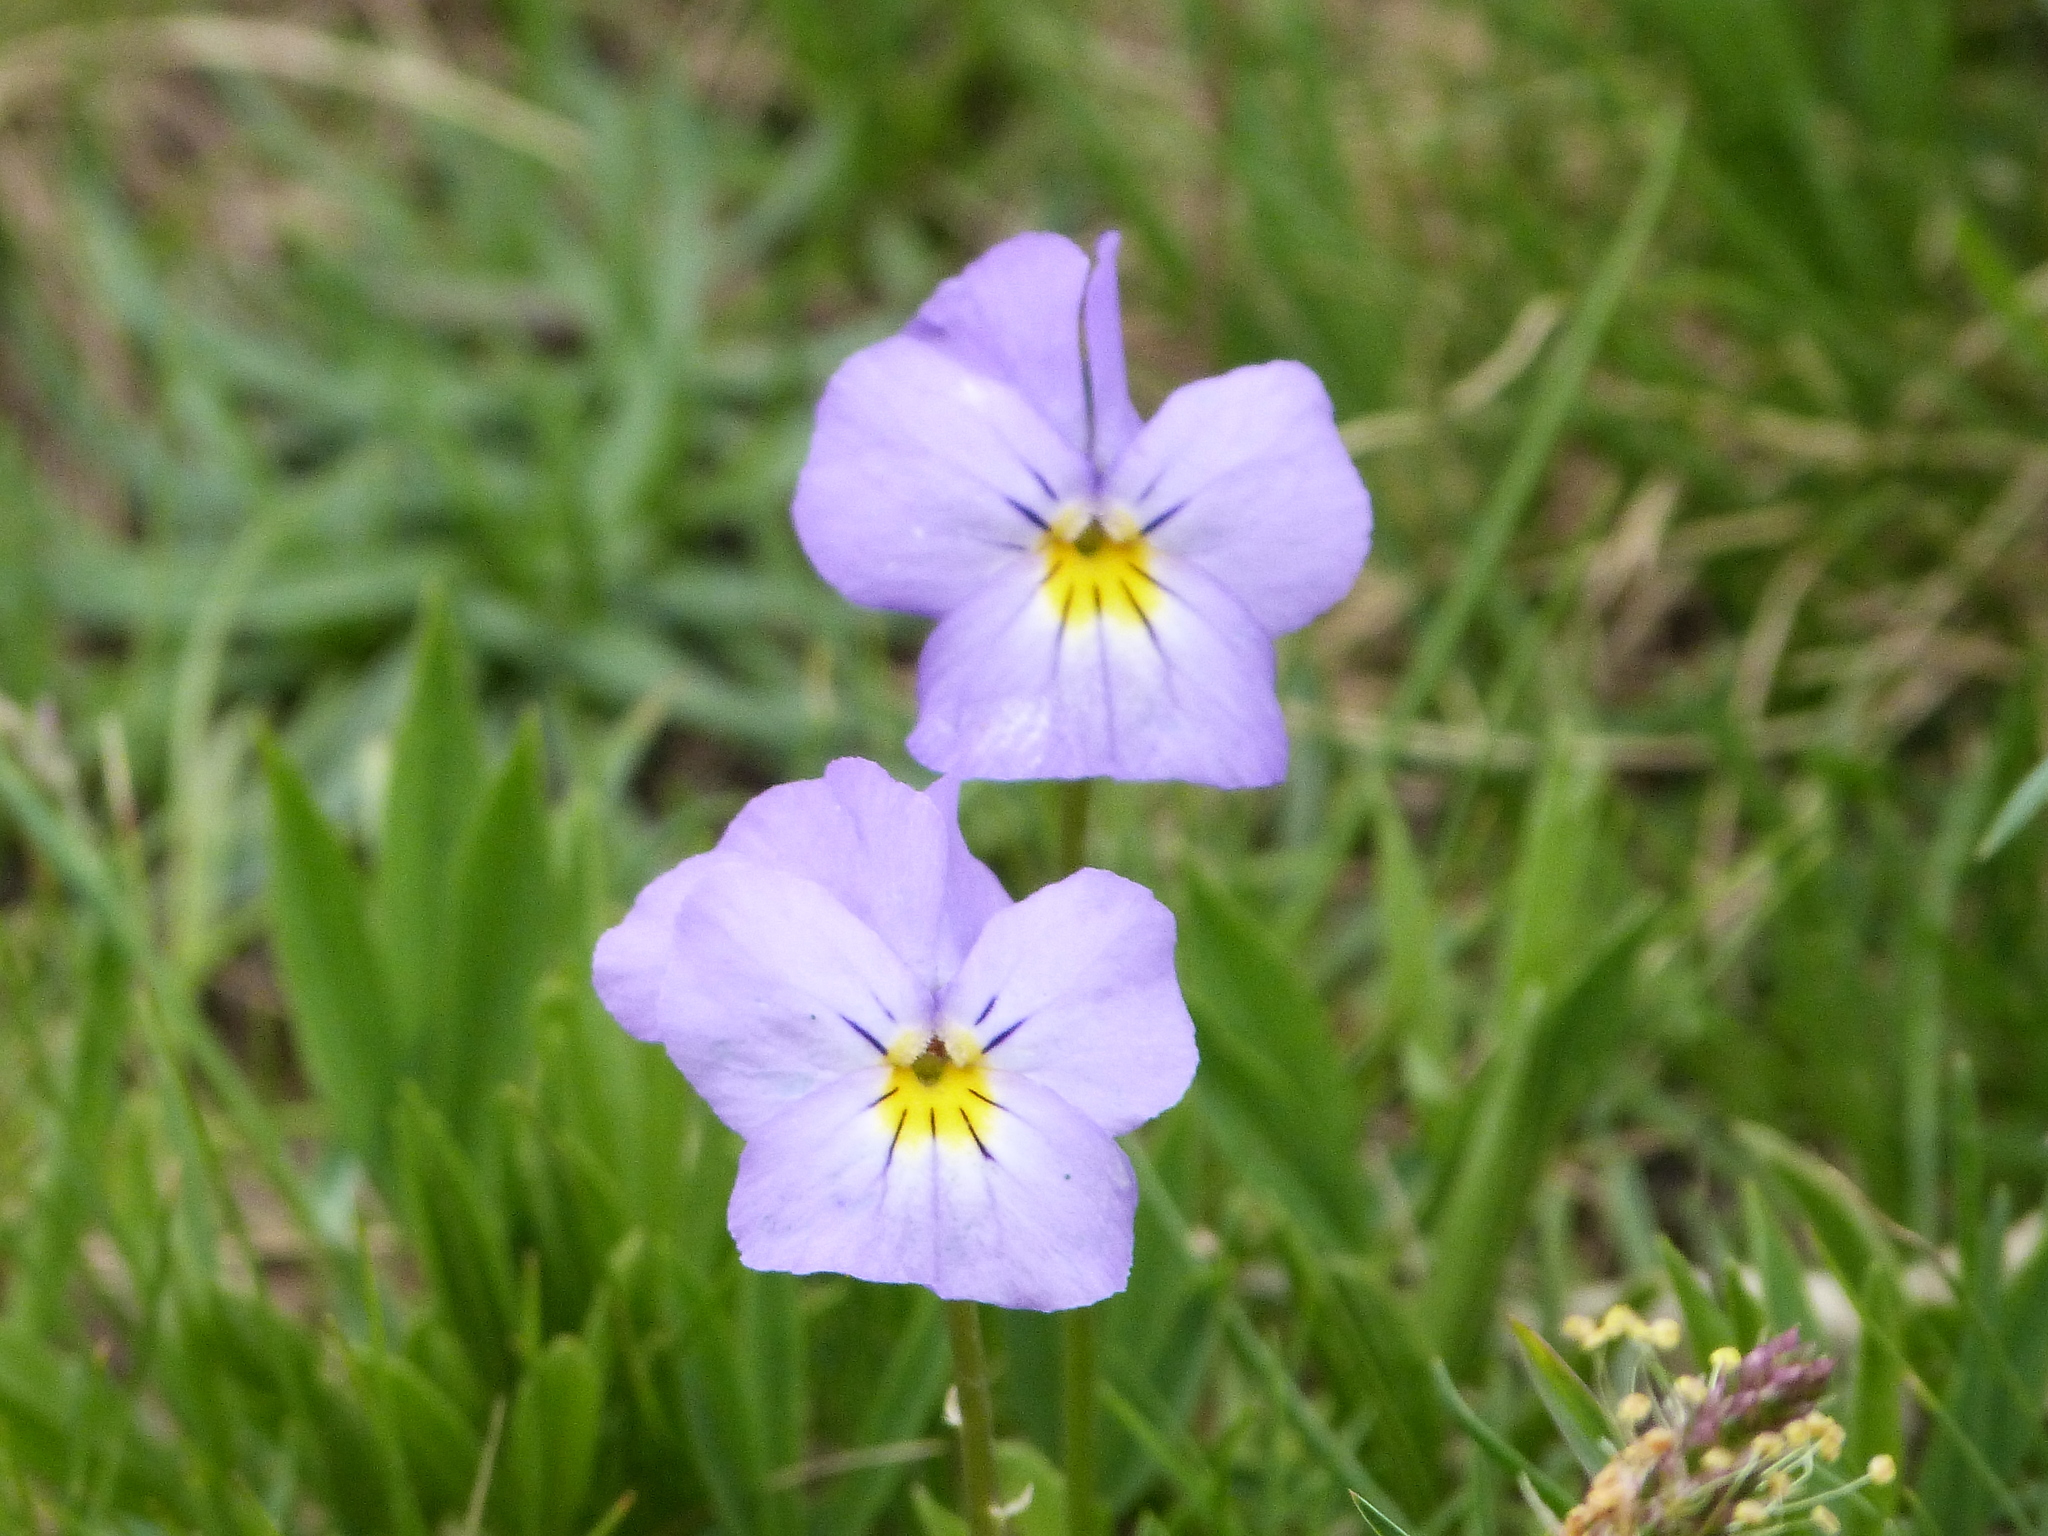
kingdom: Plantae
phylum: Tracheophyta
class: Magnoliopsida
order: Malpighiales
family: Violaceae
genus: Viola
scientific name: Viola calcarata
